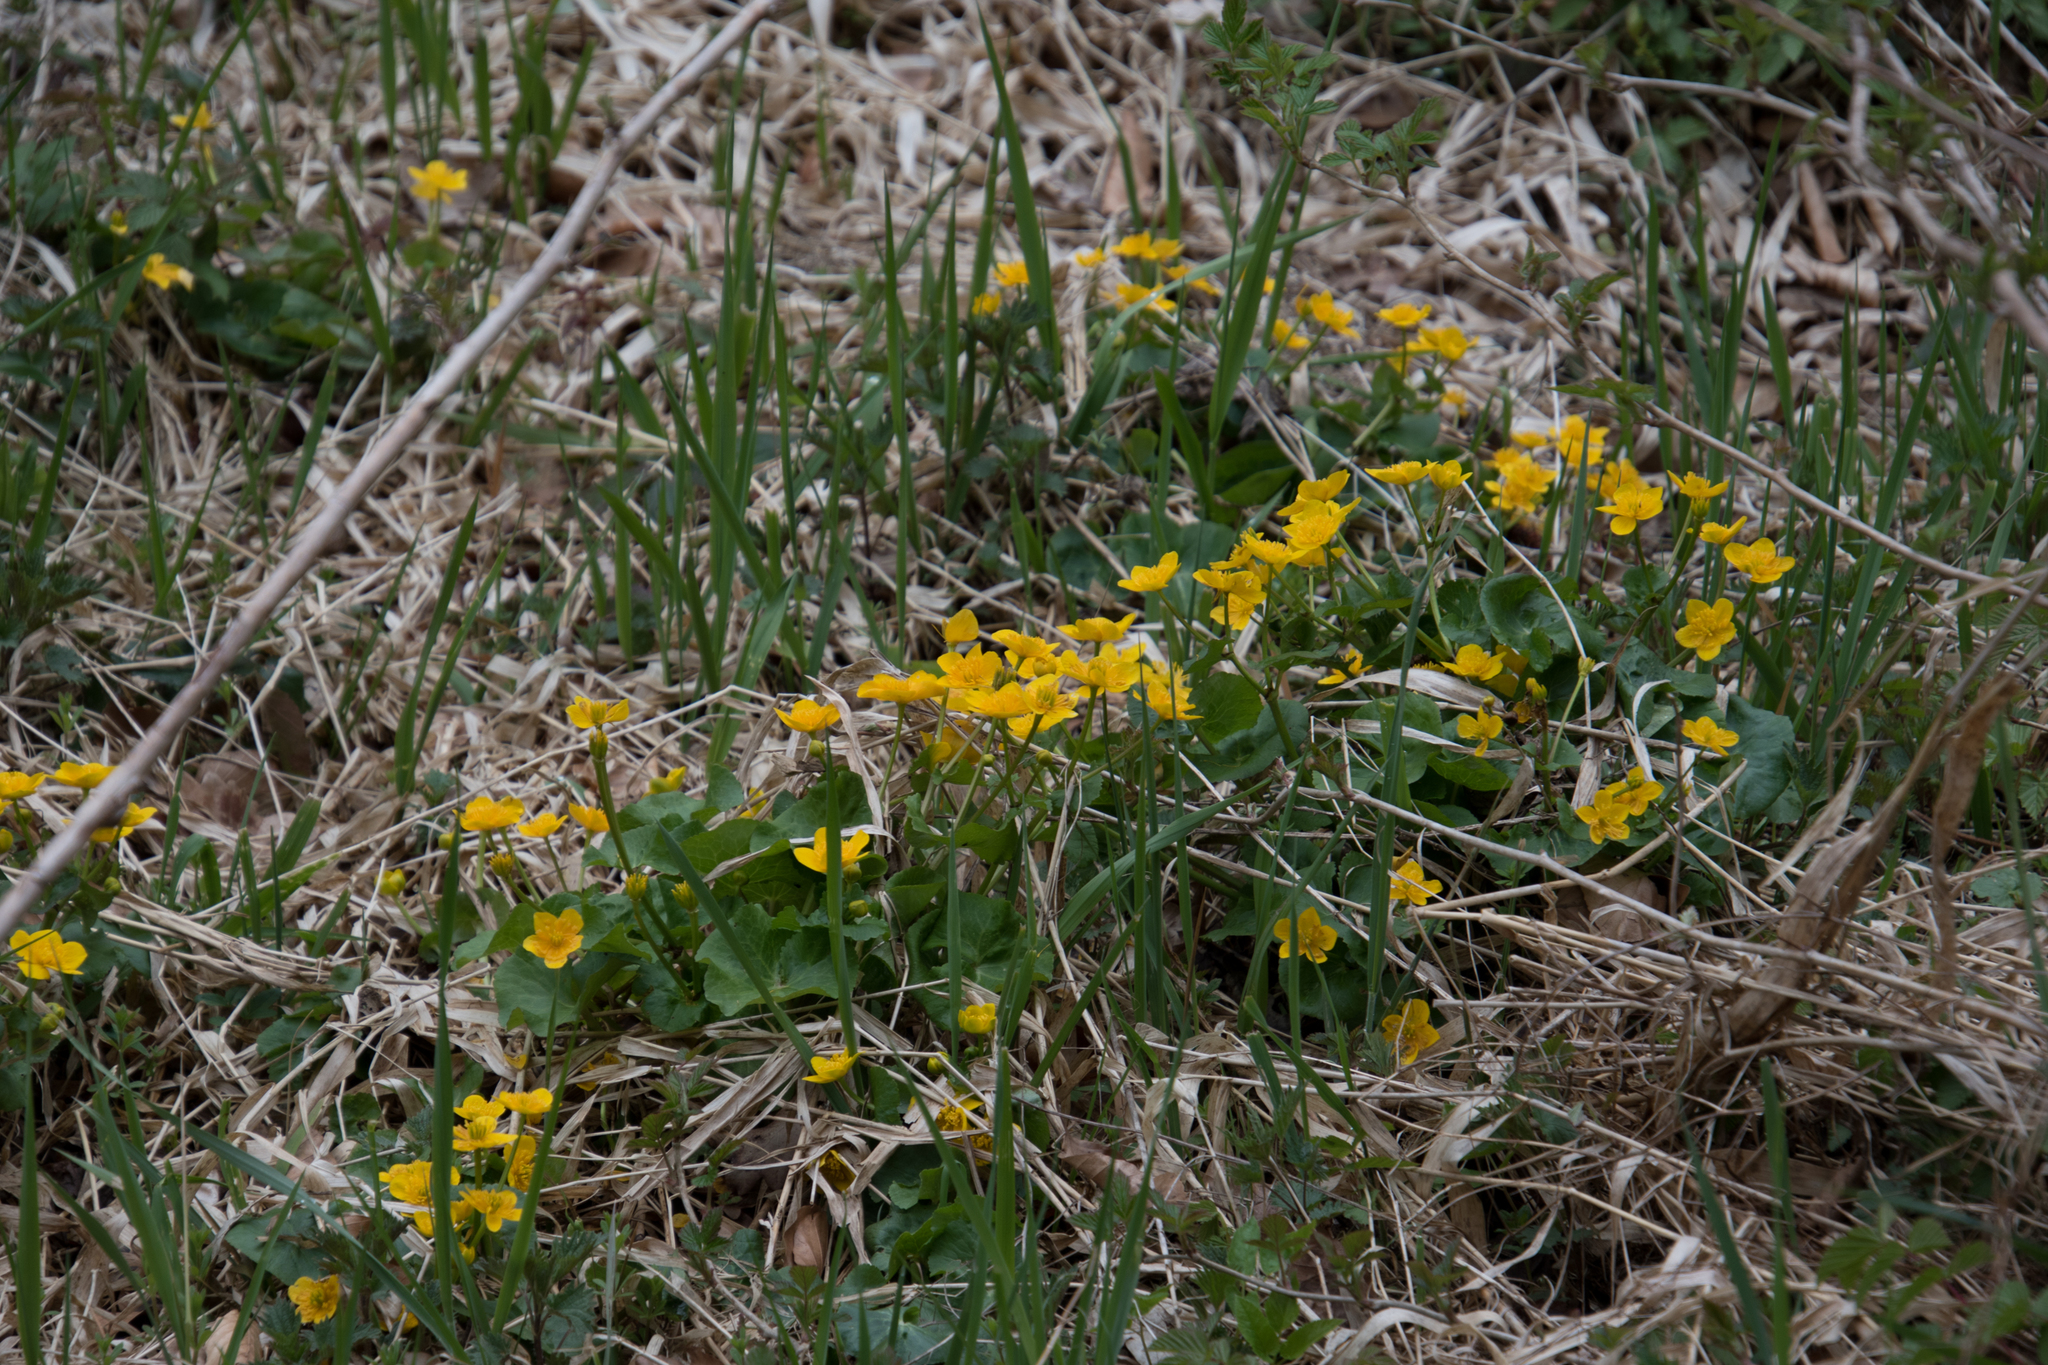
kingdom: Plantae
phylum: Tracheophyta
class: Magnoliopsida
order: Ranunculales
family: Ranunculaceae
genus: Caltha
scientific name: Caltha palustris
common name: Marsh marigold
